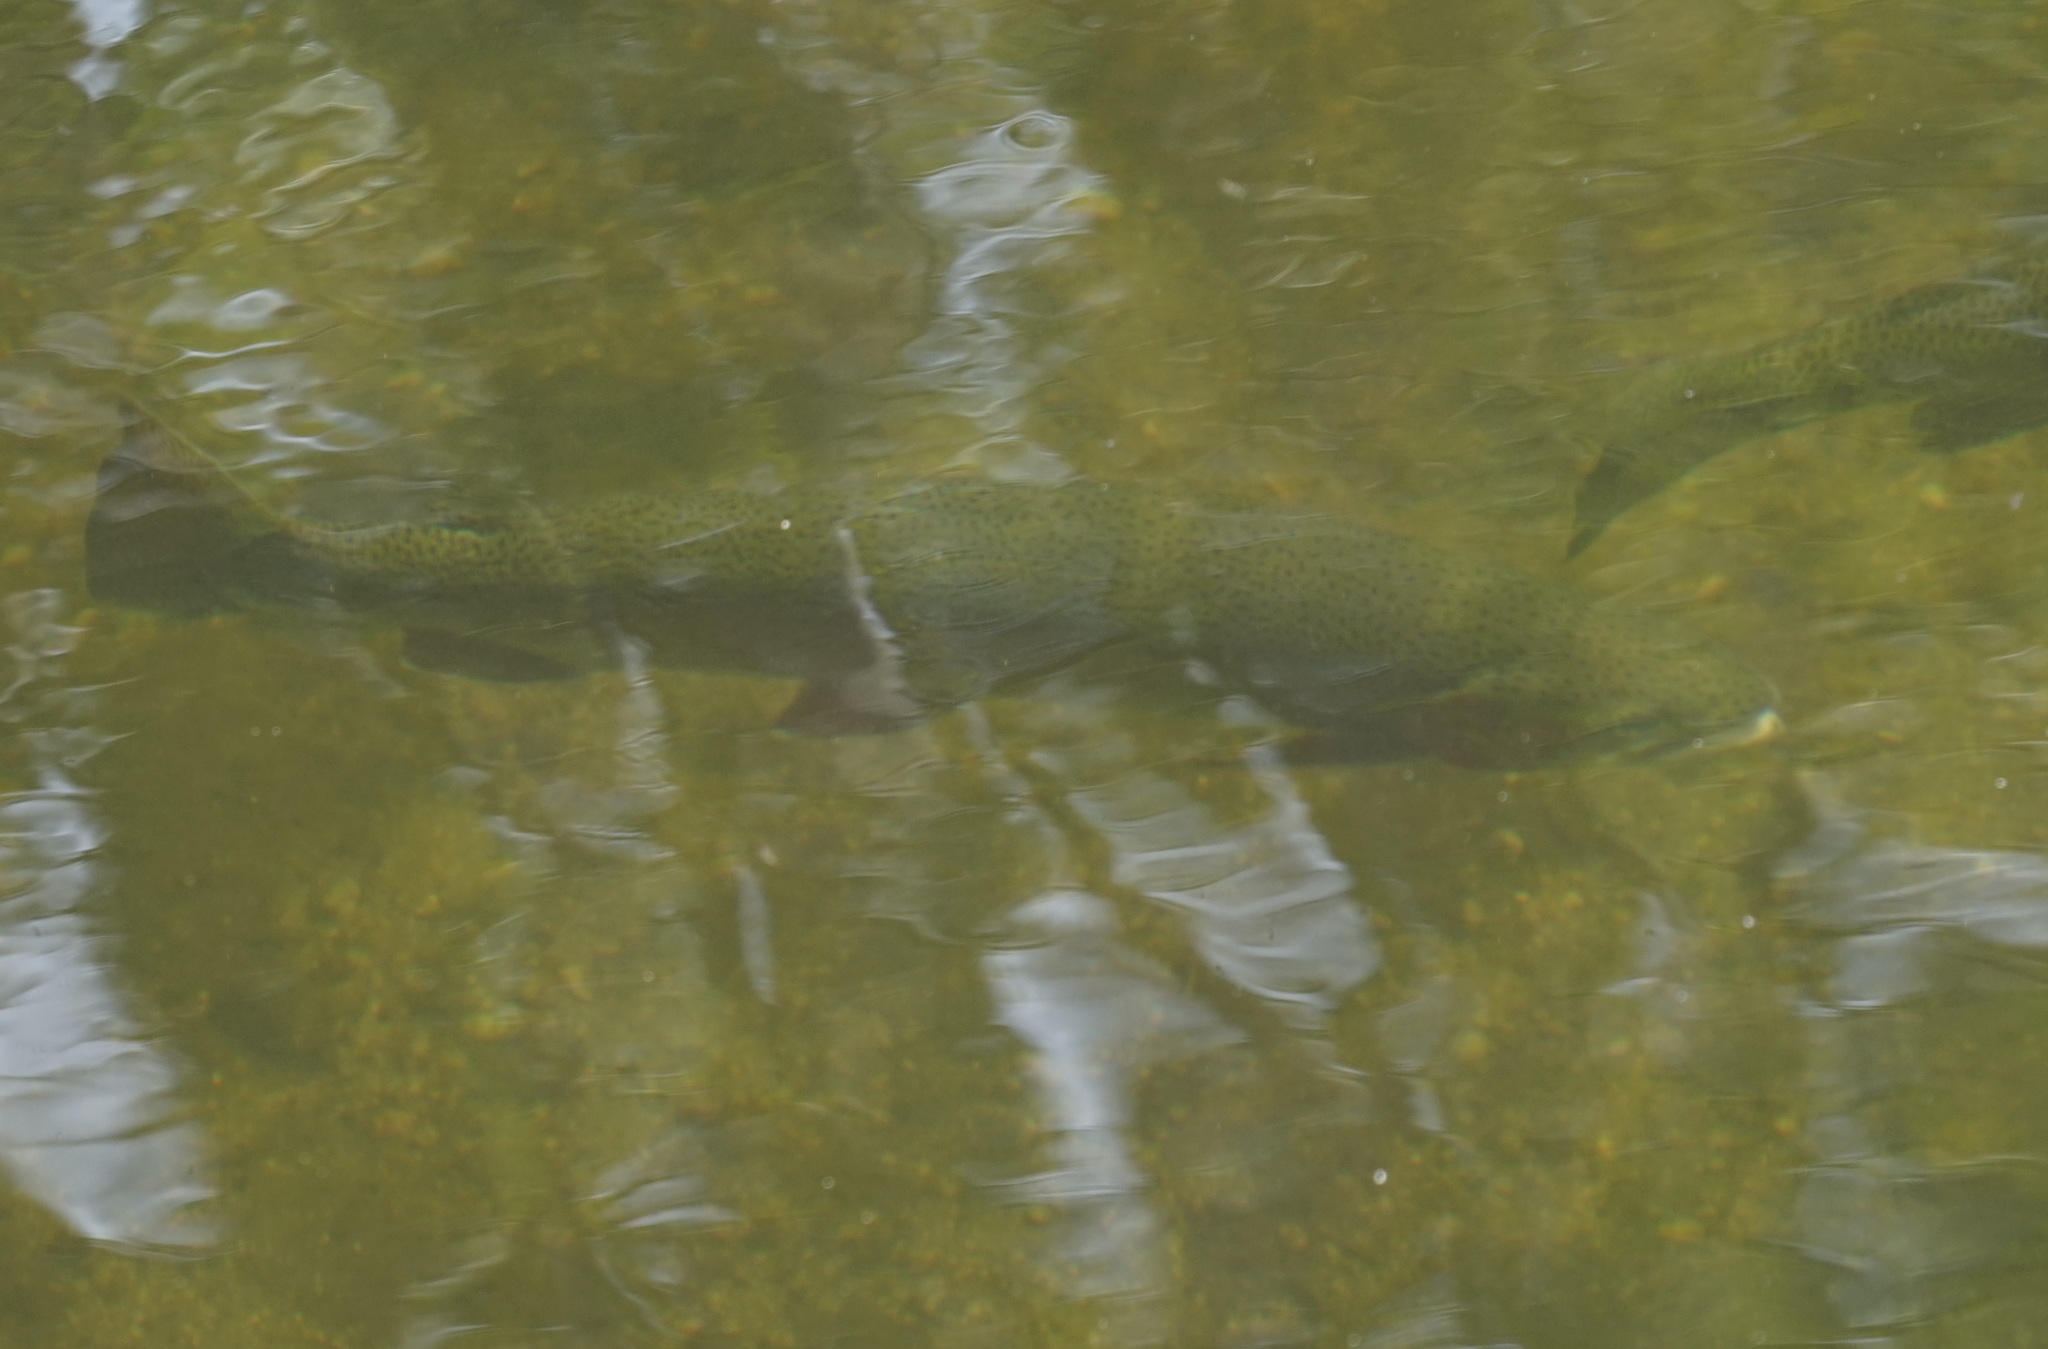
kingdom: Animalia
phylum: Chordata
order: Salmoniformes
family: Salmonidae
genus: Oncorhynchus
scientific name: Oncorhynchus mykiss
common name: Rainbow trout
